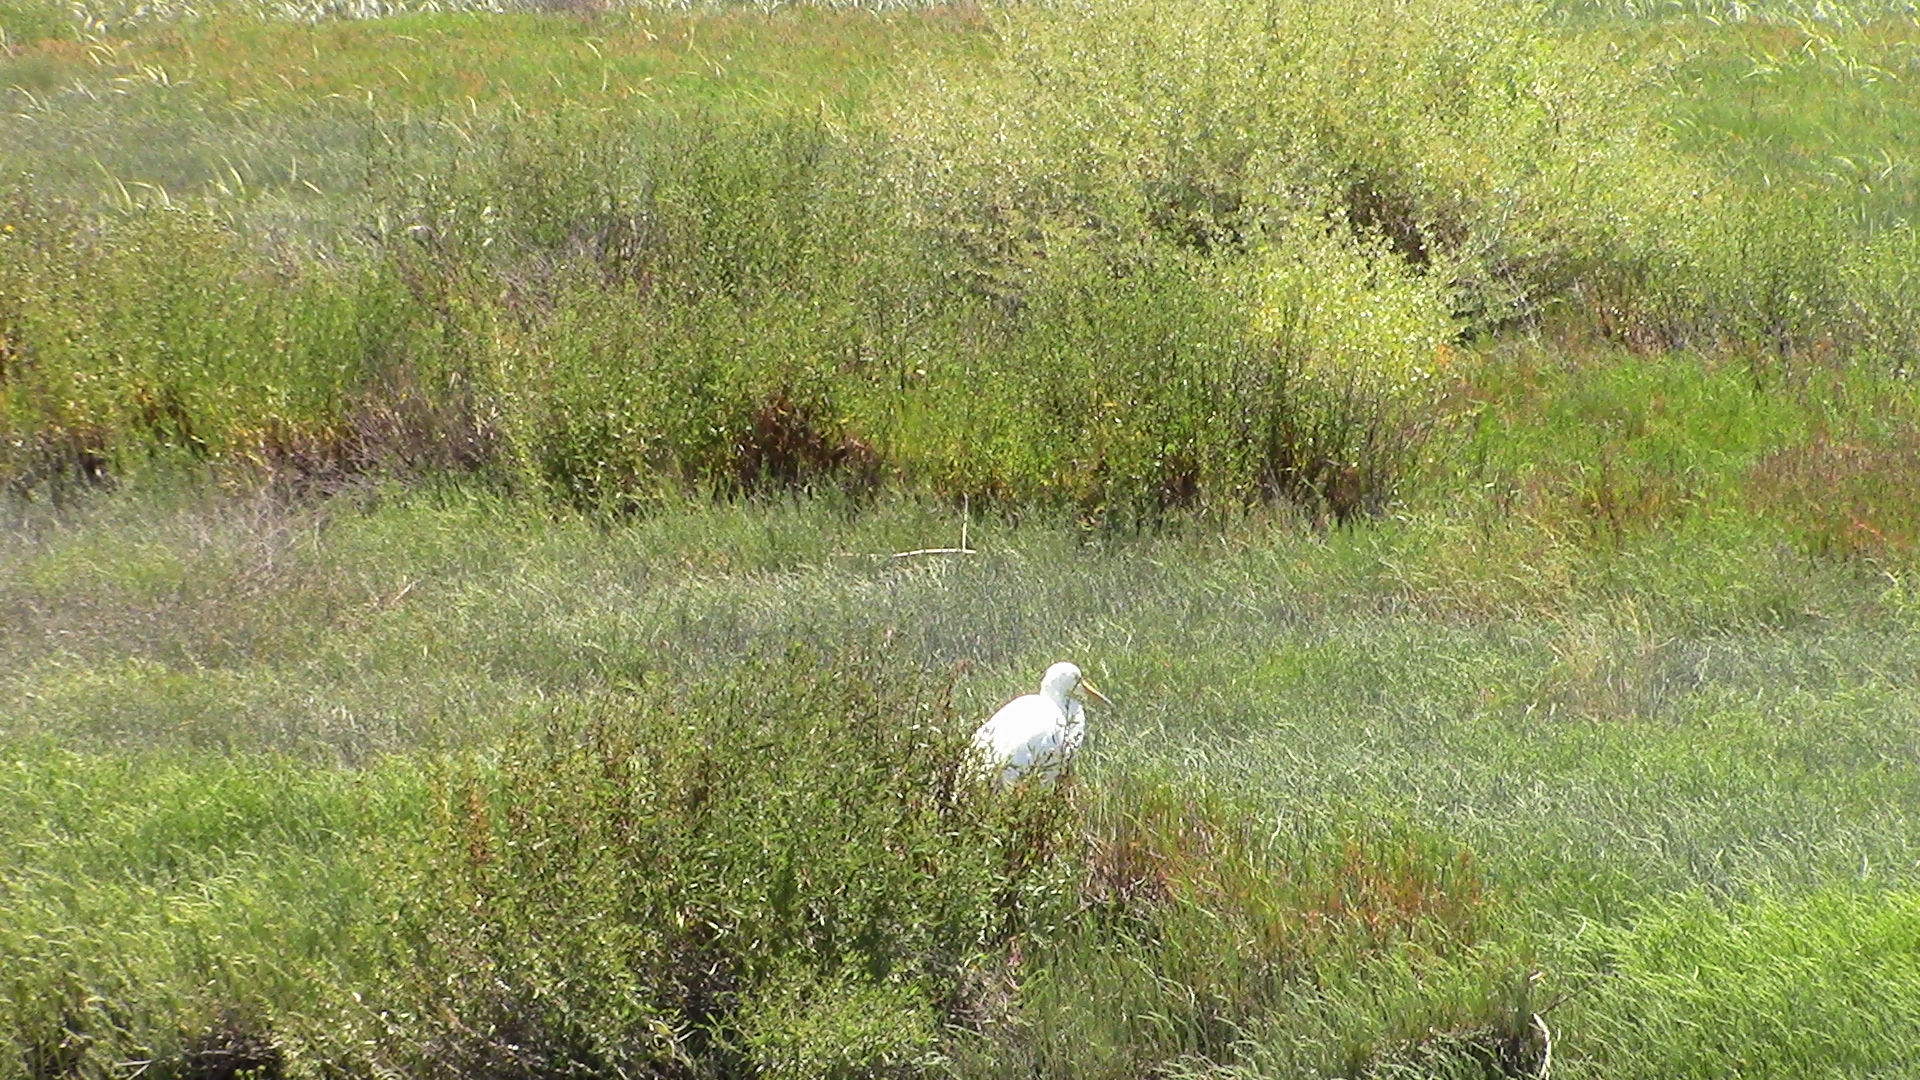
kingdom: Animalia
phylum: Chordata
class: Aves
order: Pelecaniformes
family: Ardeidae
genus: Ardea
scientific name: Ardea alba
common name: Great egret
